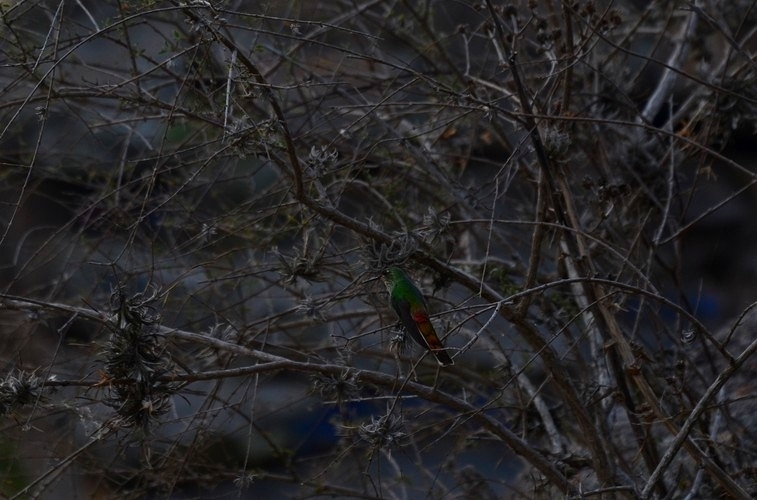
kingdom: Animalia
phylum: Chordata
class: Aves
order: Apodiformes
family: Trochilidae
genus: Sappho
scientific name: Sappho sparganurus
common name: Red-tailed comet
